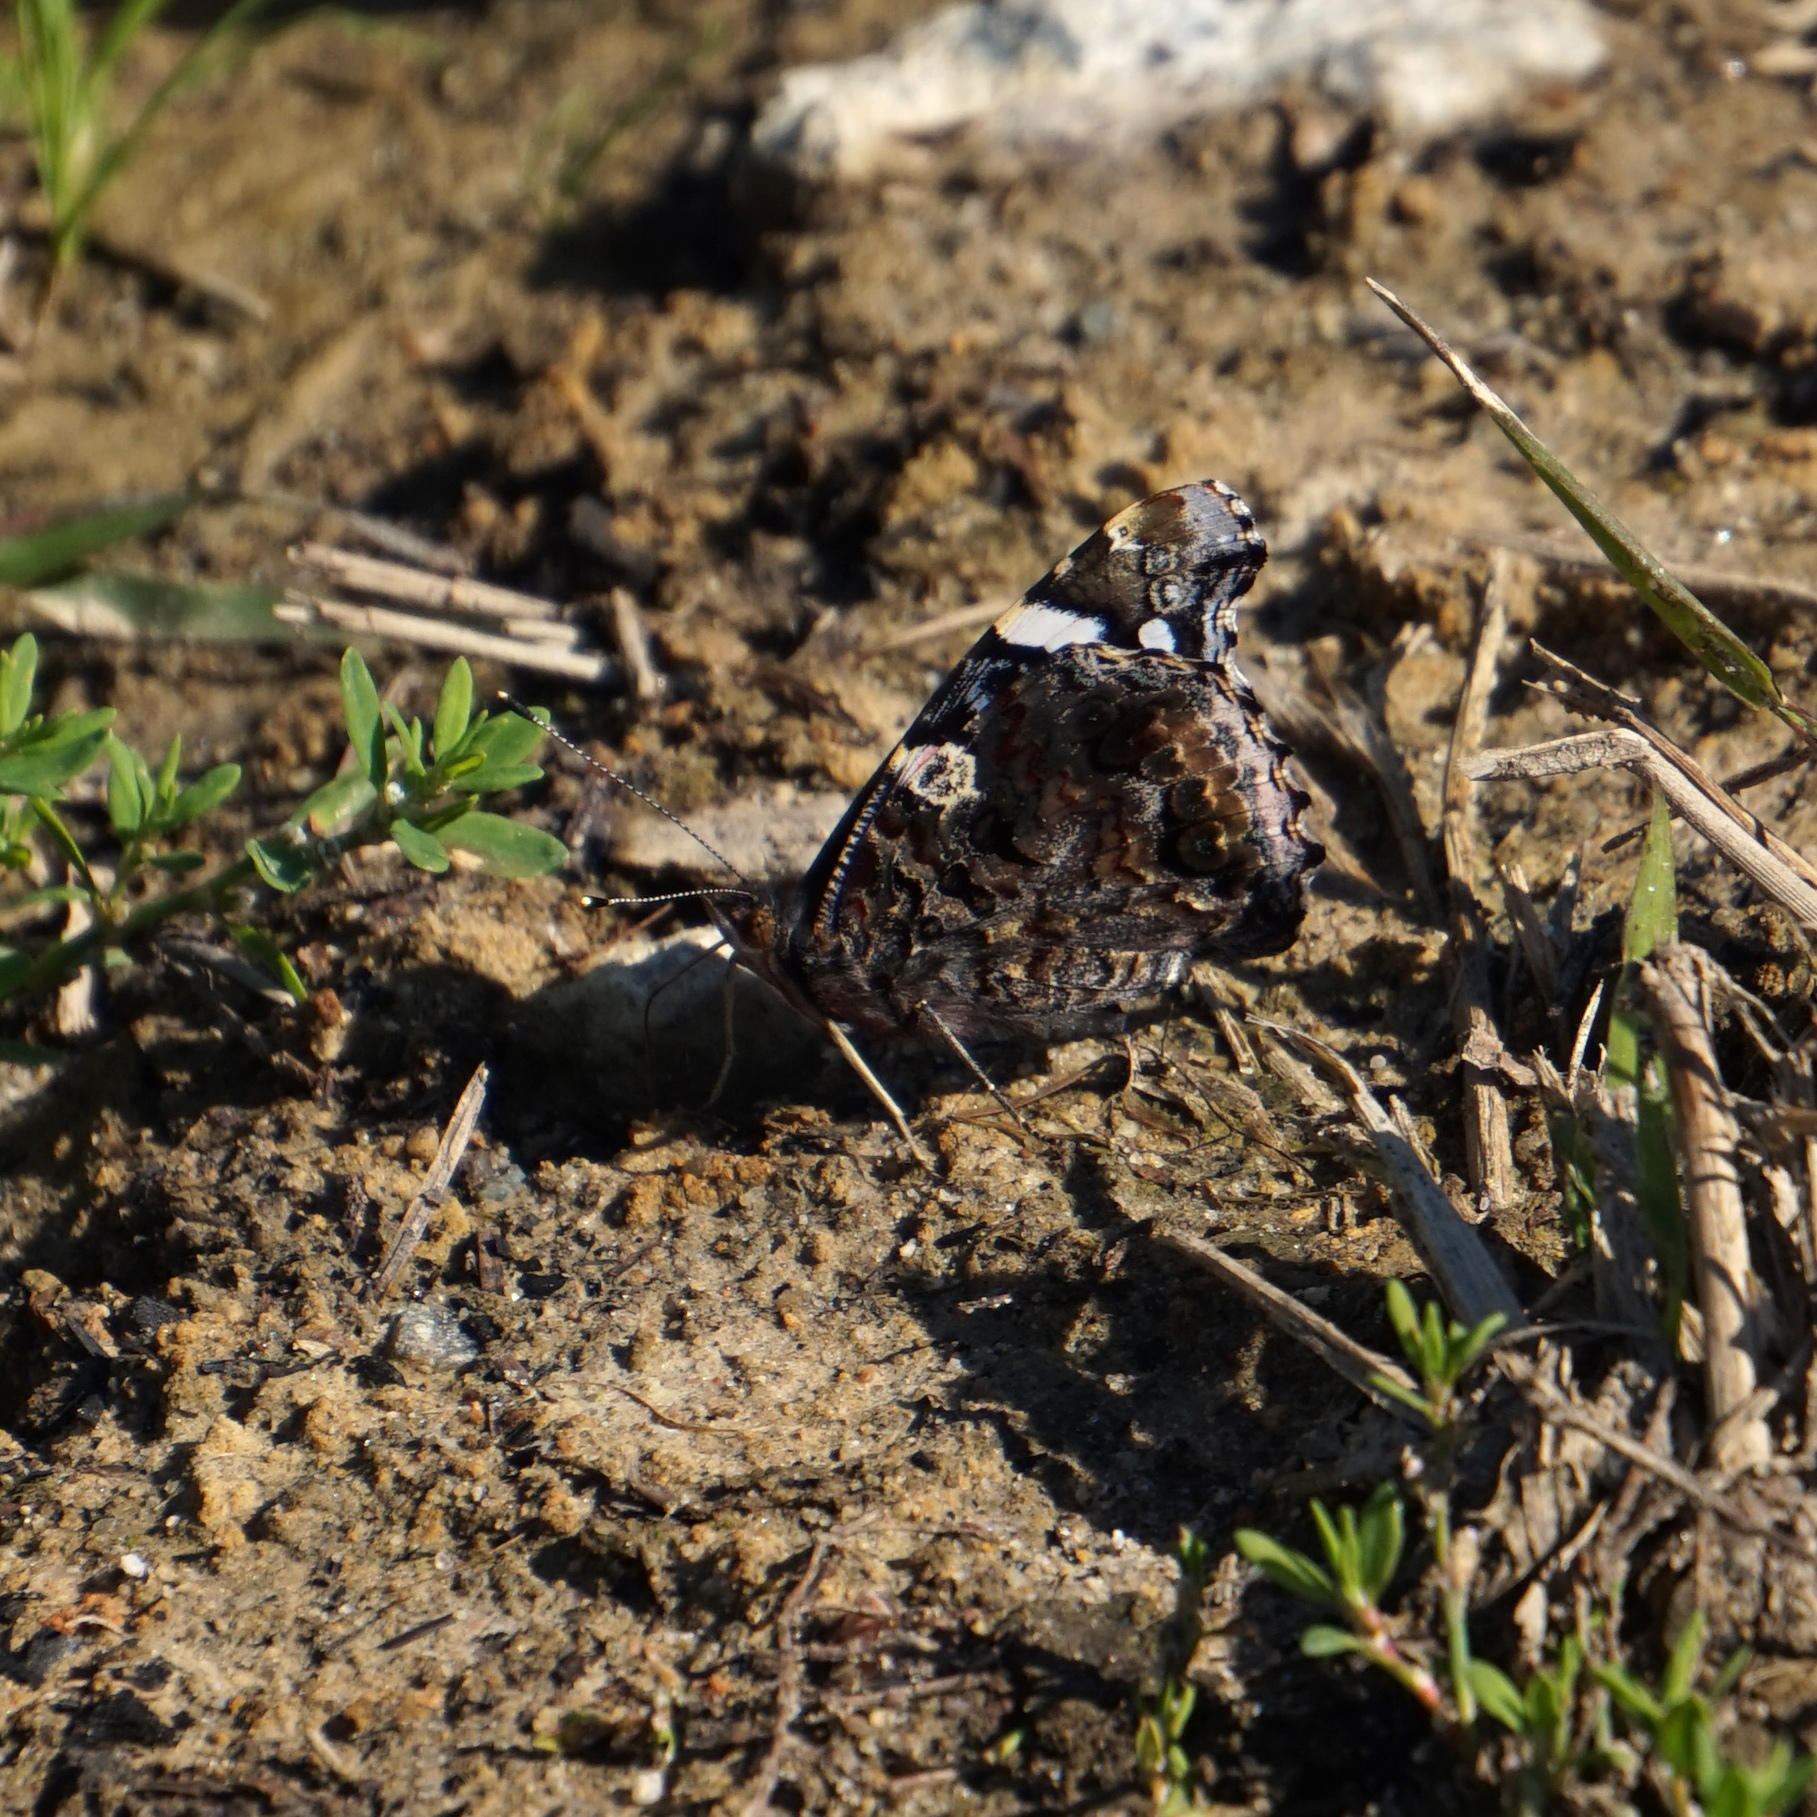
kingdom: Animalia
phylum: Arthropoda
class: Insecta
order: Lepidoptera
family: Nymphalidae
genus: Vanessa
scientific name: Vanessa atalanta
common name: Red admiral
